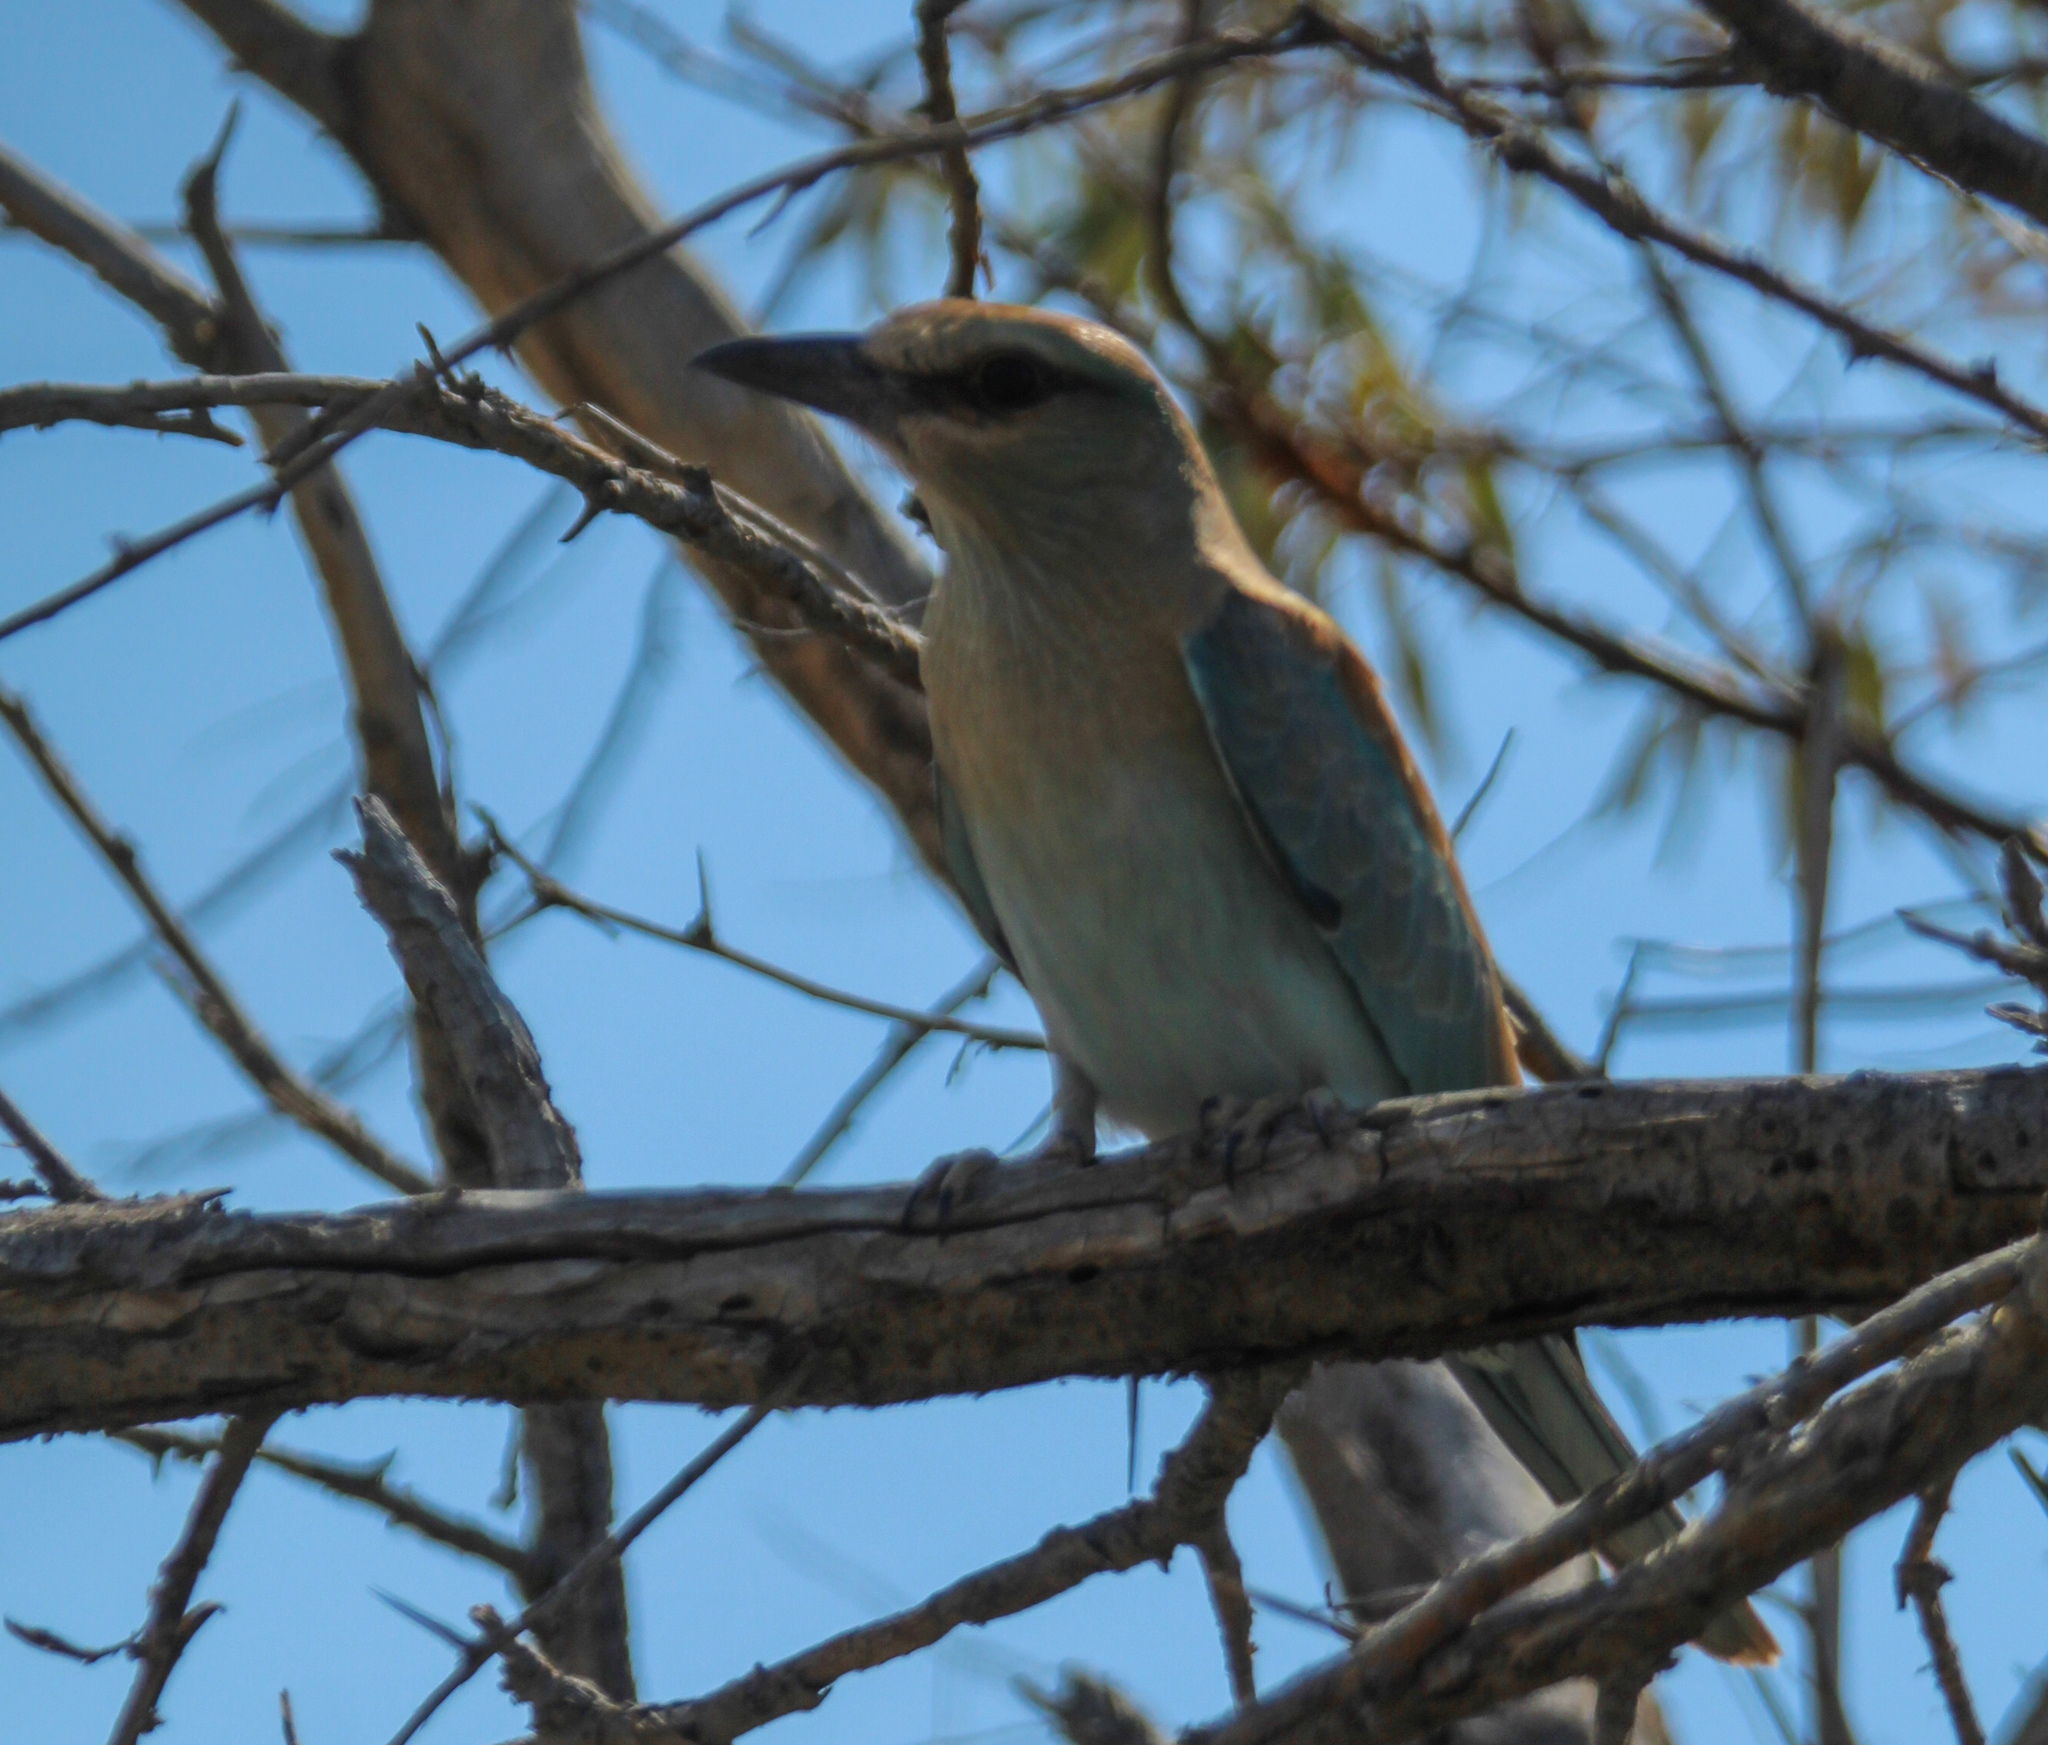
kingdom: Animalia
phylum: Chordata
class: Aves
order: Coraciiformes
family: Coraciidae
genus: Coracias
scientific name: Coracias garrulus
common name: European roller
